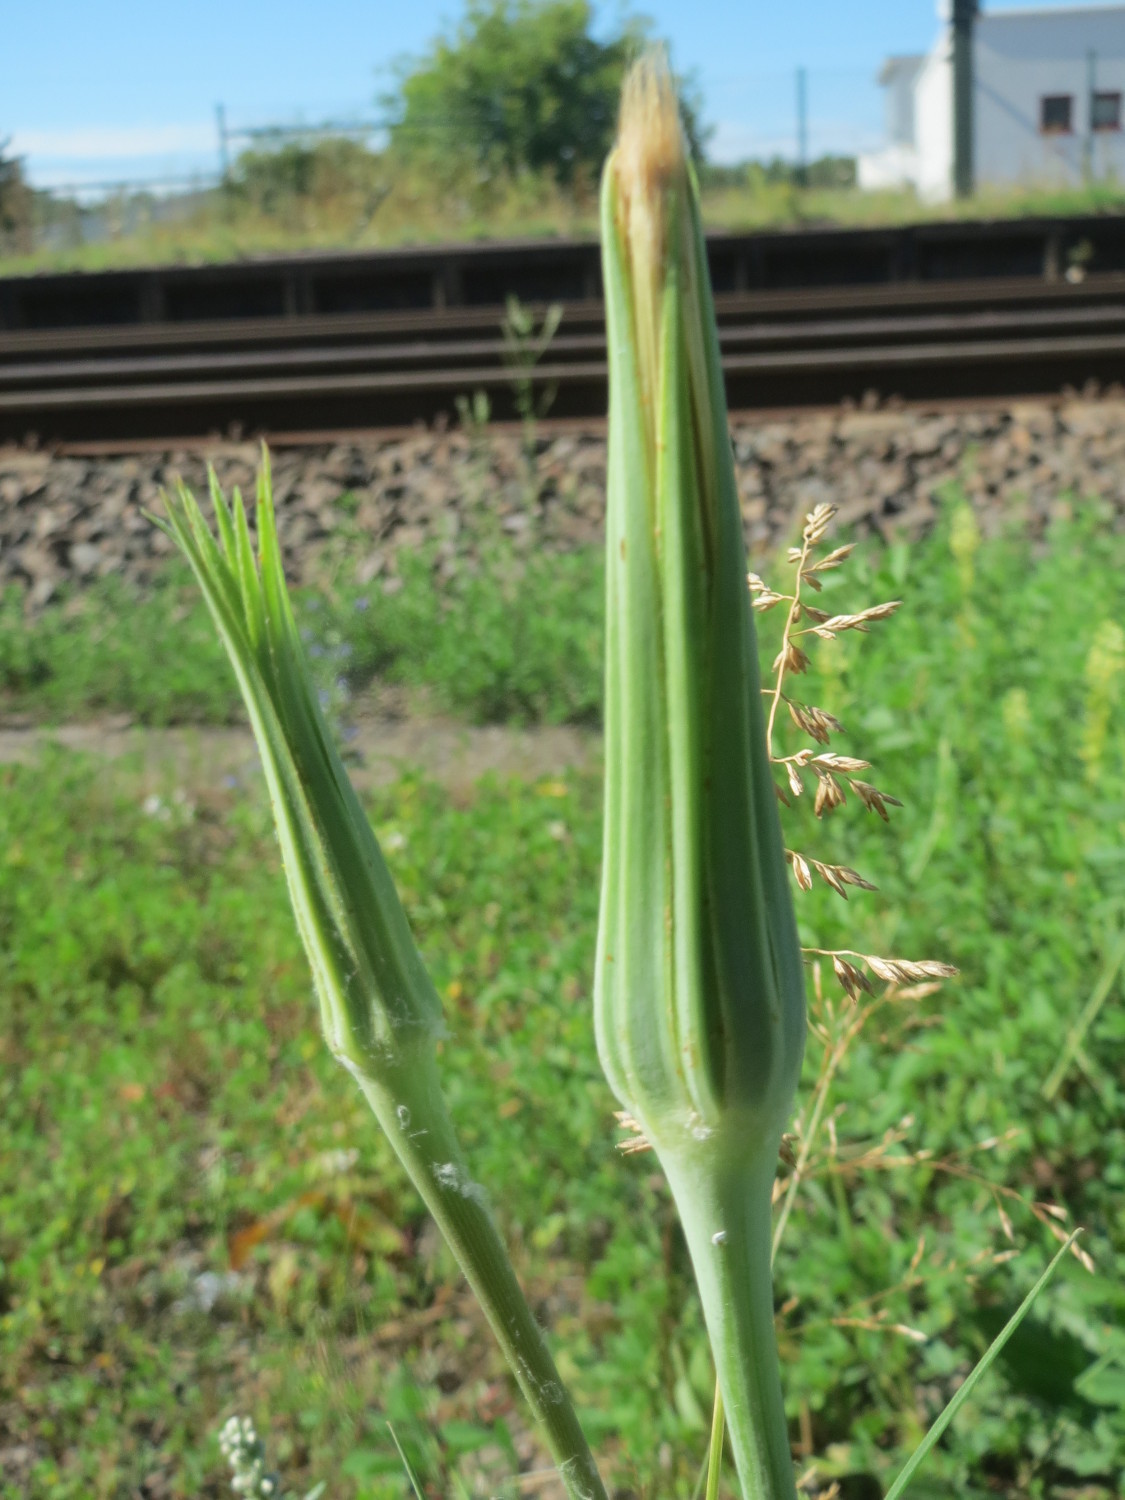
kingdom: Plantae
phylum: Tracheophyta
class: Magnoliopsida
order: Asterales
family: Asteraceae
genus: Tragopogon
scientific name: Tragopogon dubius
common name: Yellow salsify
